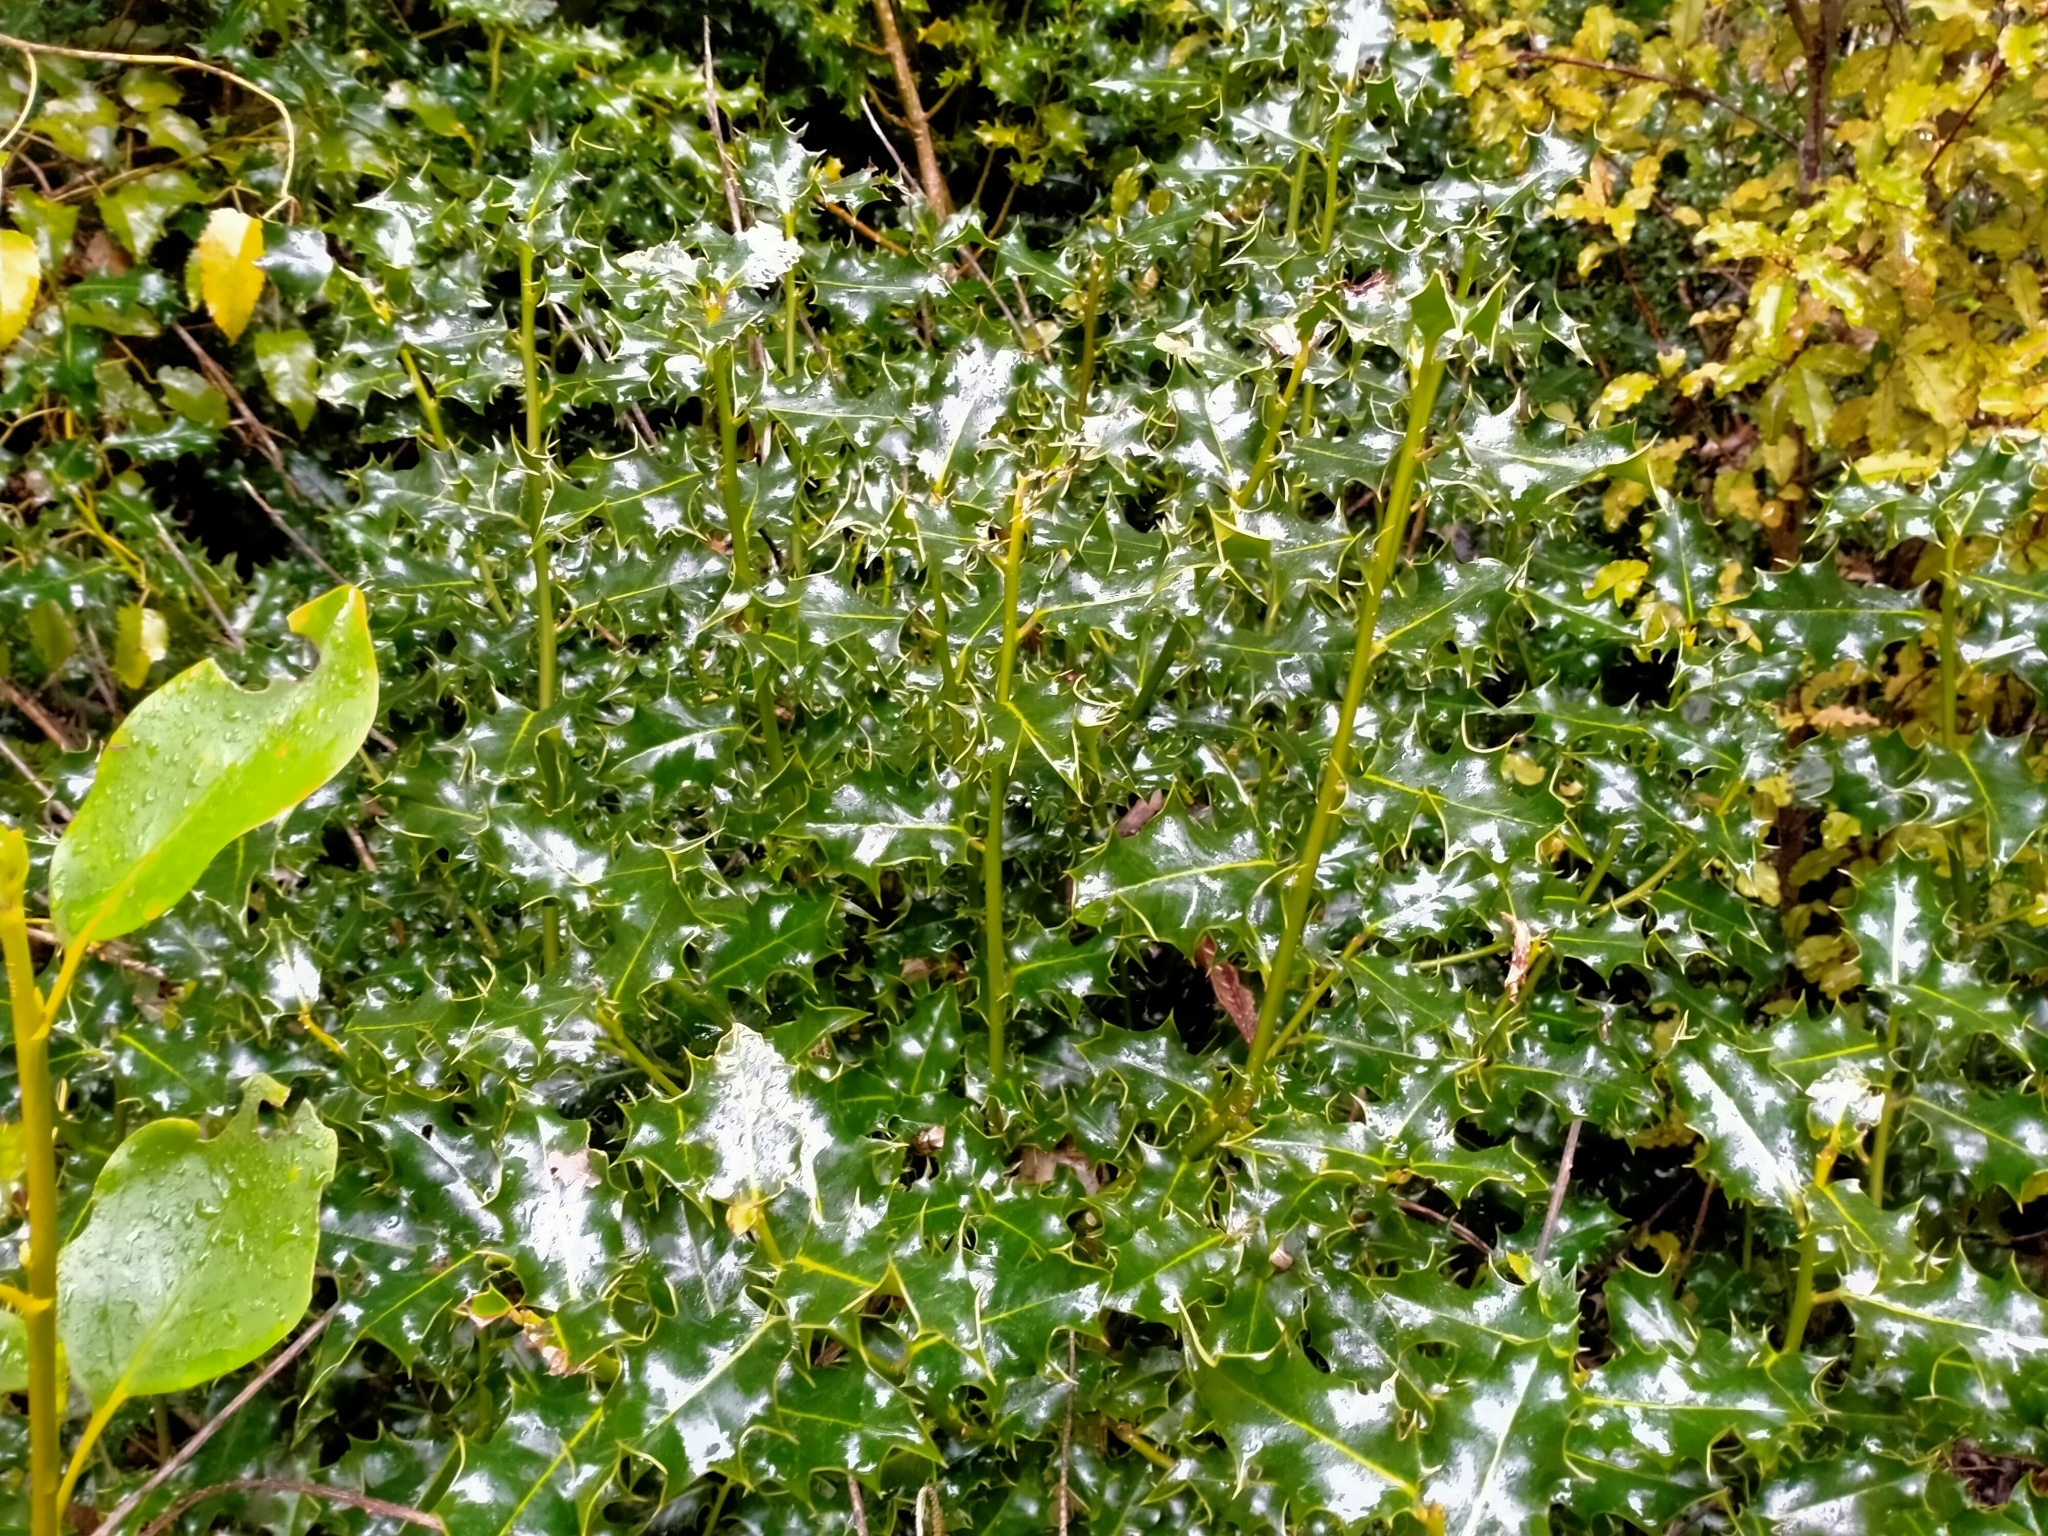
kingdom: Plantae
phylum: Tracheophyta
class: Magnoliopsida
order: Aquifoliales
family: Aquifoliaceae
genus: Ilex
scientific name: Ilex aquifolium
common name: English holly
